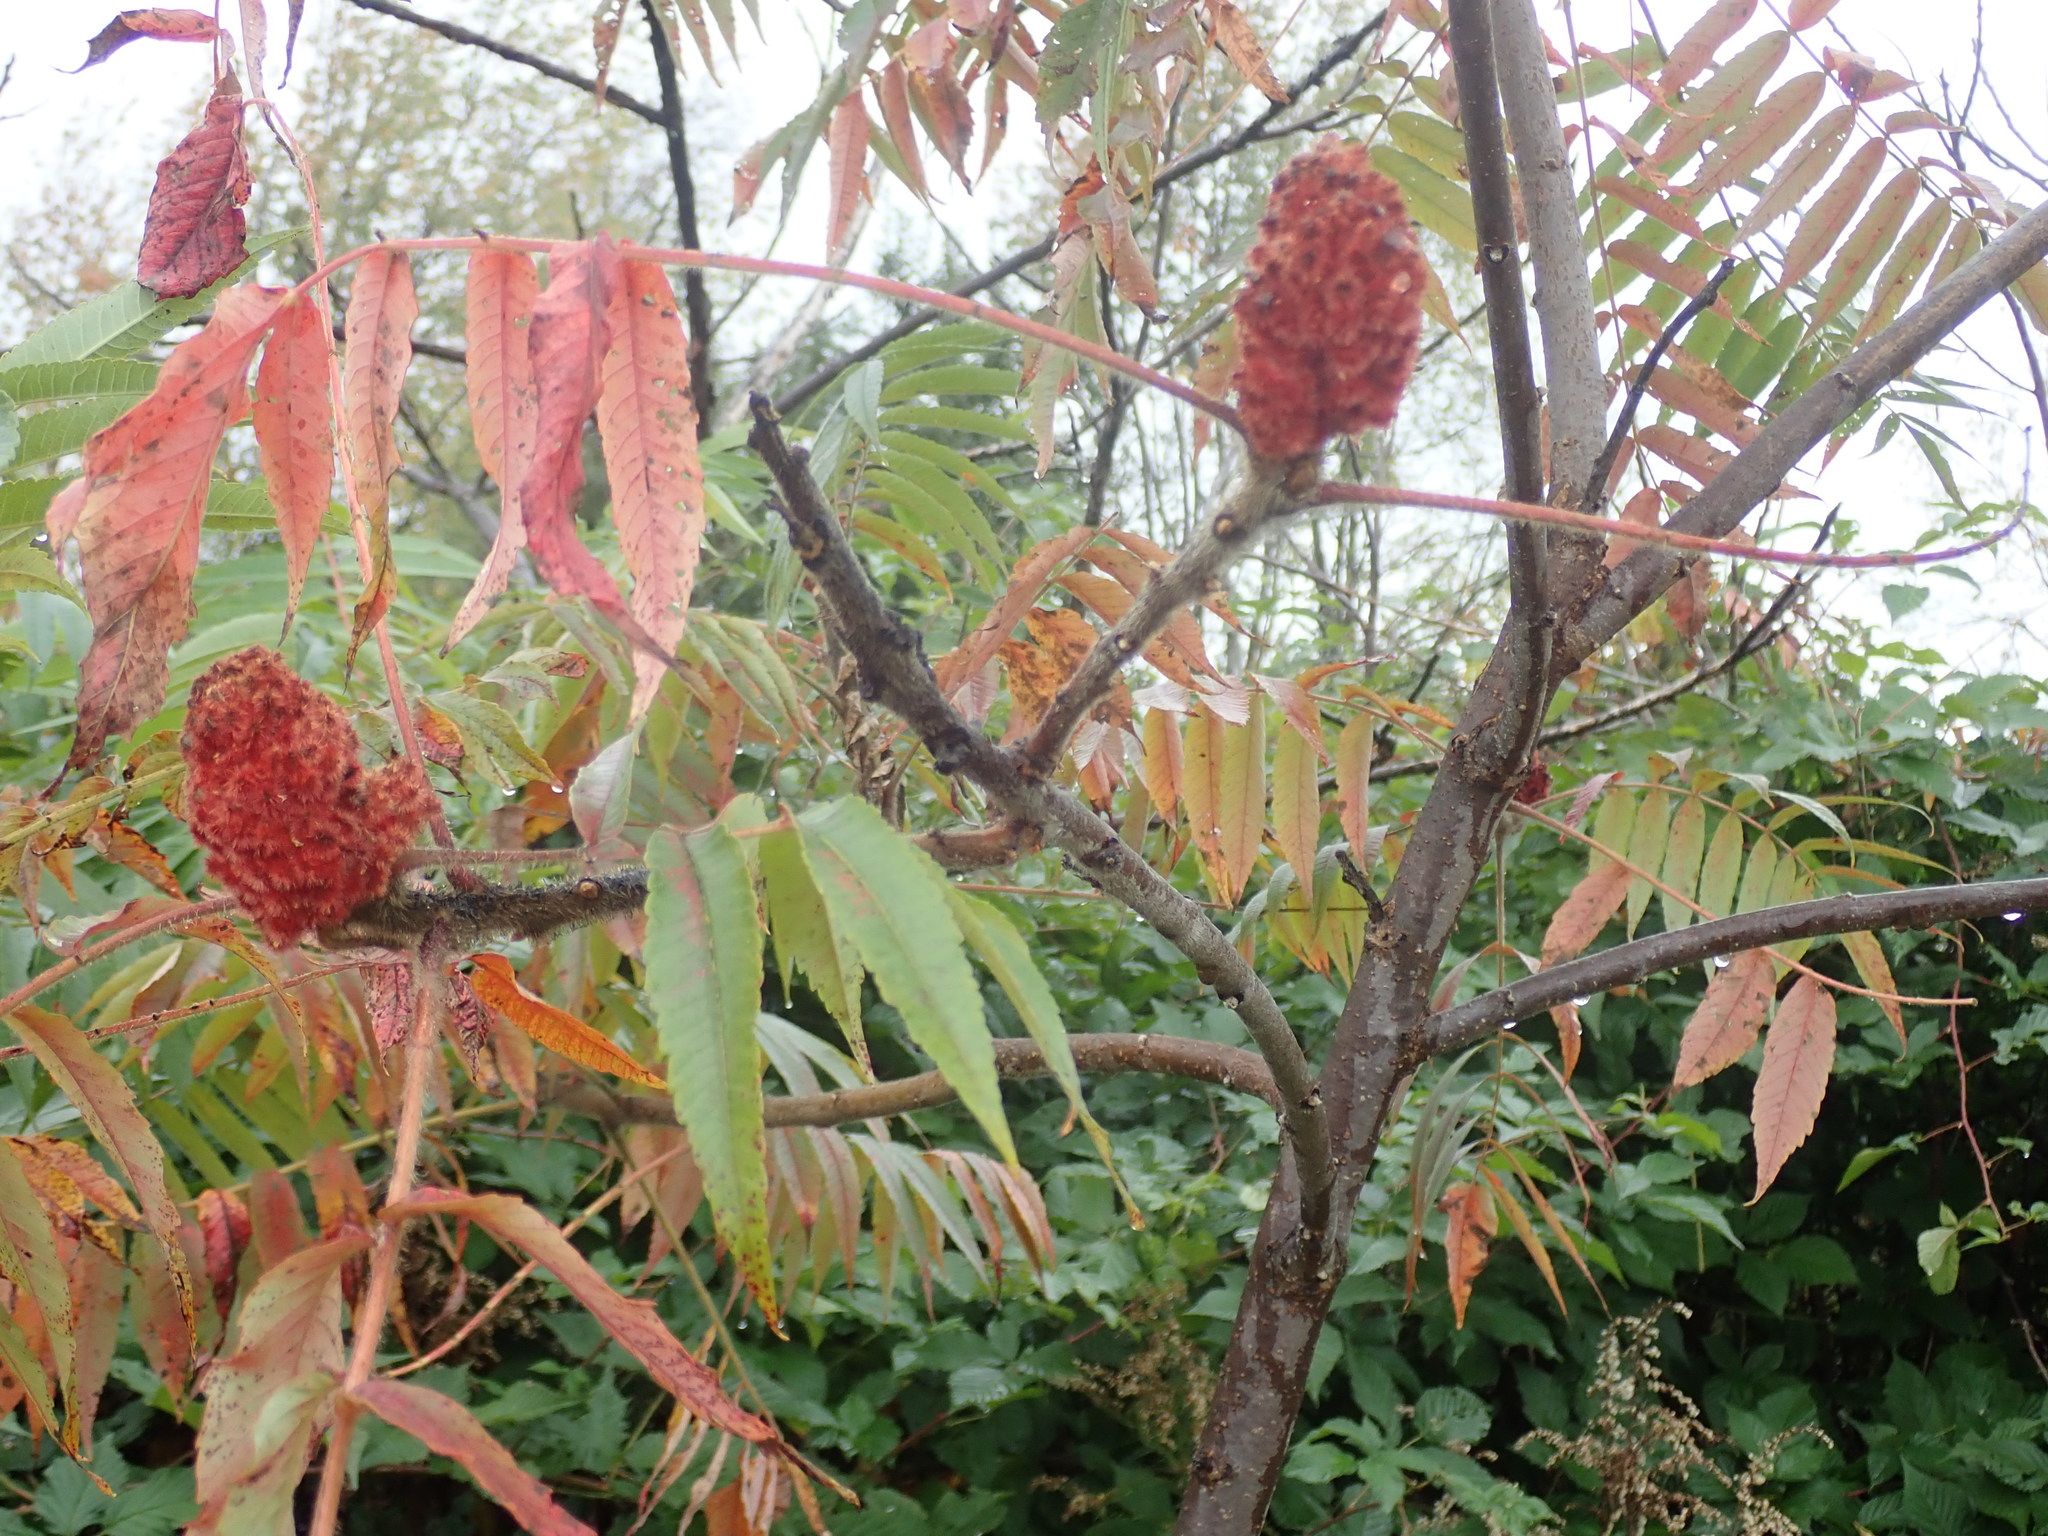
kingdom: Plantae
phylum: Tracheophyta
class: Magnoliopsida
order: Sapindales
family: Anacardiaceae
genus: Rhus
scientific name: Rhus typhina
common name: Staghorn sumac
